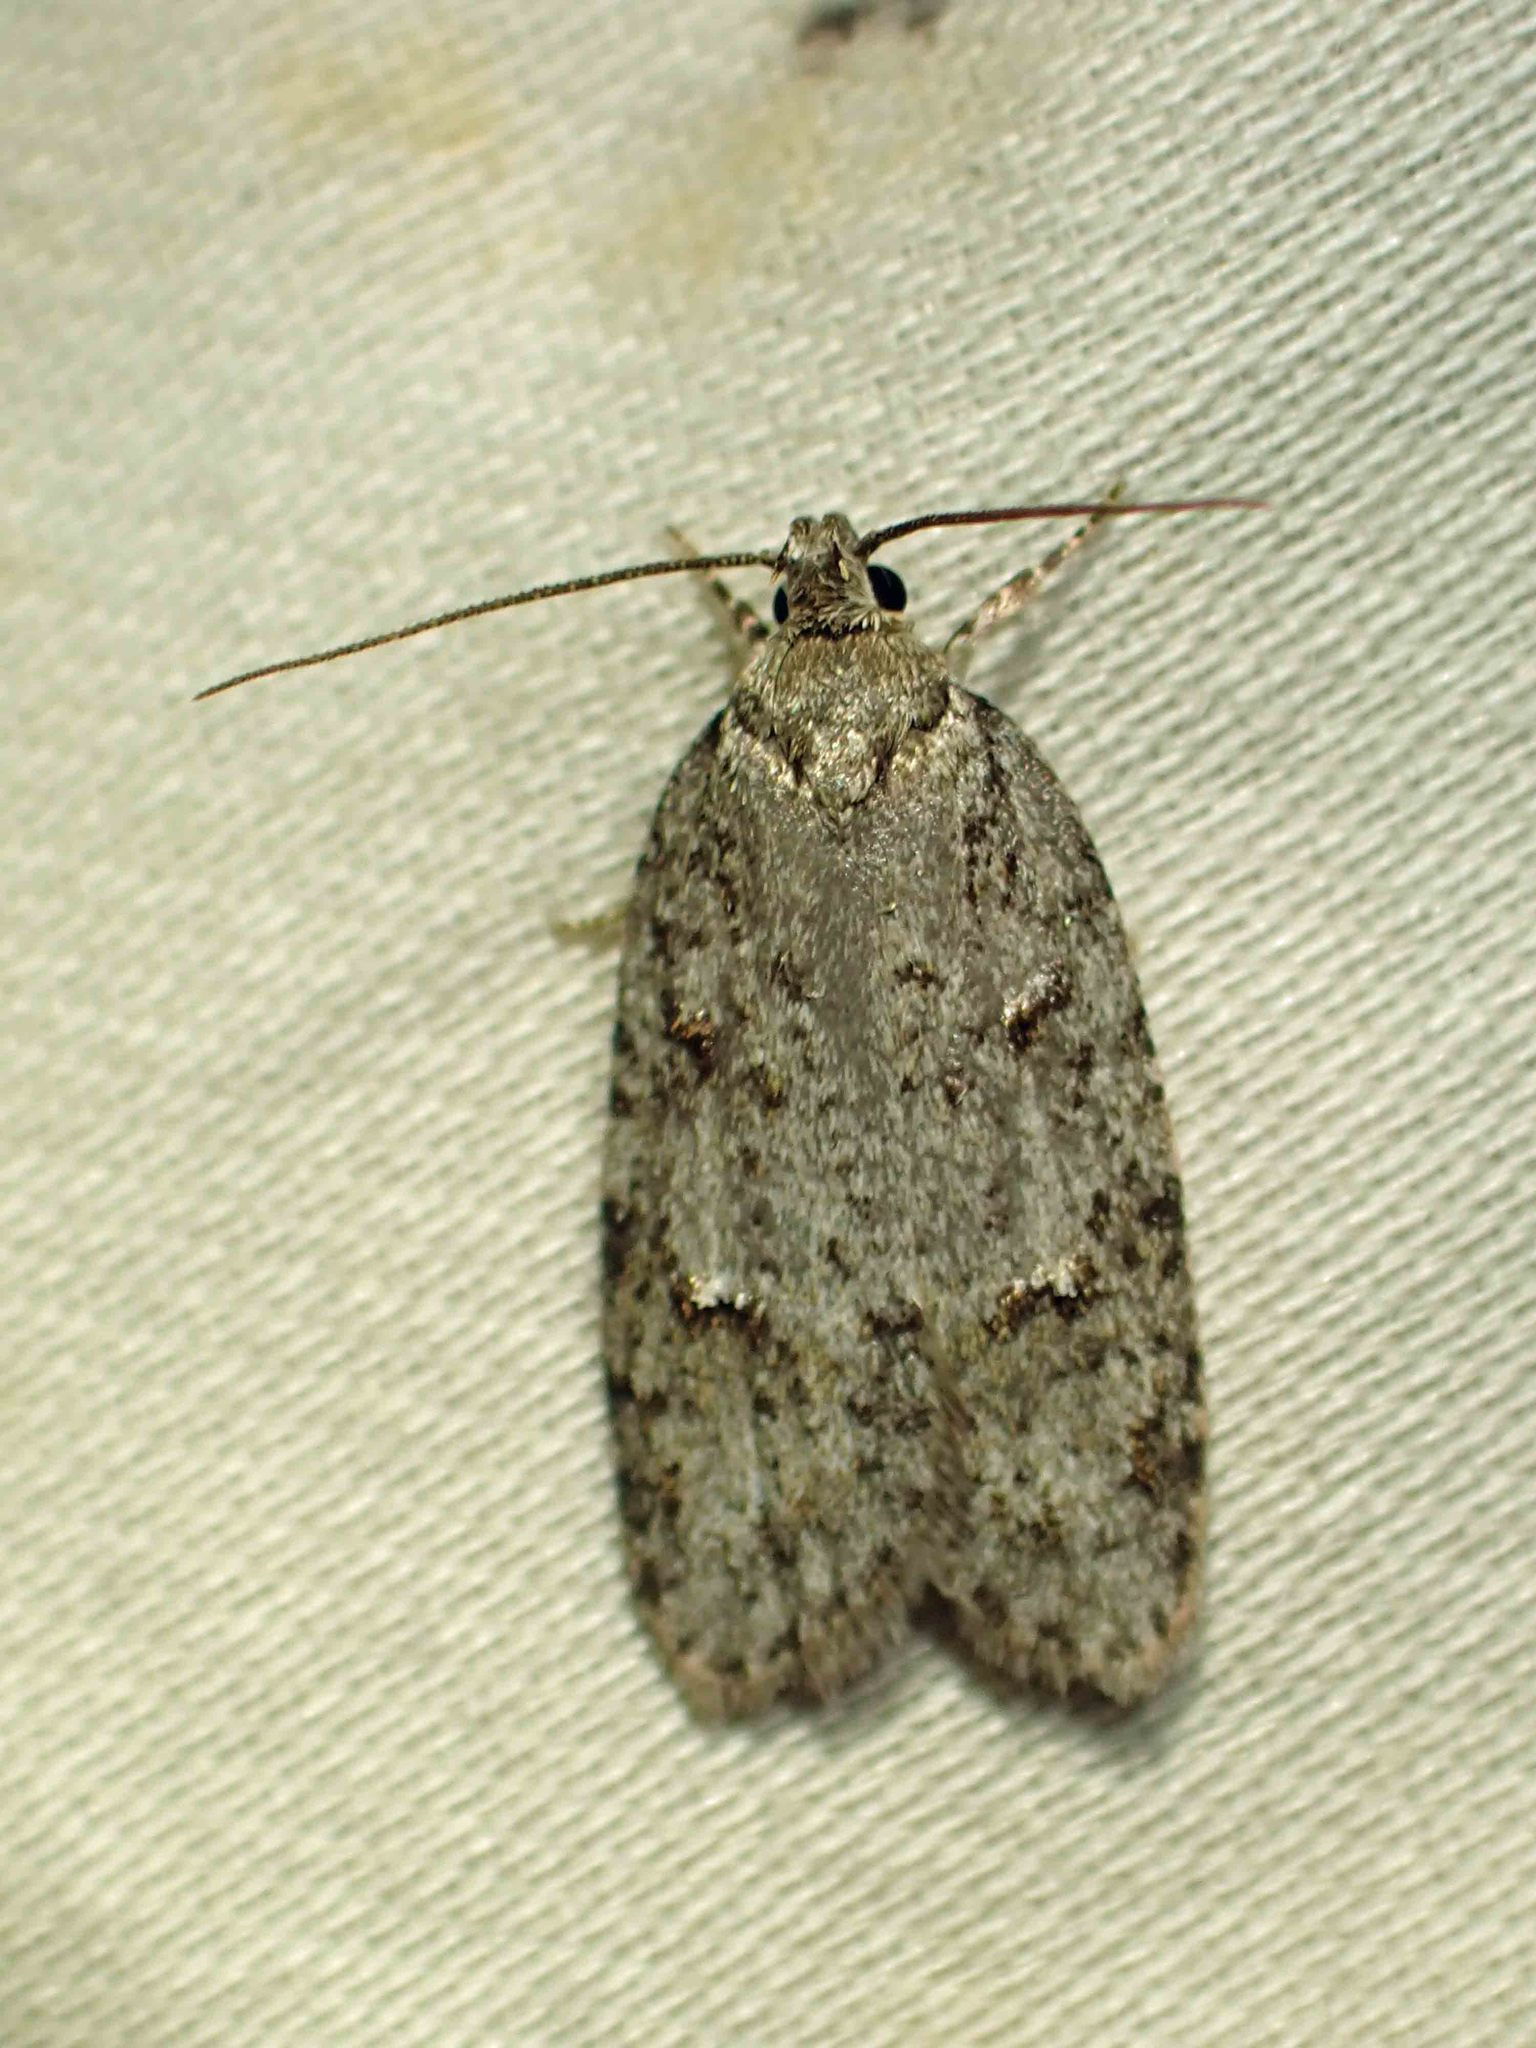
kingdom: Animalia
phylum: Arthropoda
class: Insecta
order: Lepidoptera
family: Depressariidae
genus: Bibarrambla
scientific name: Bibarrambla allenella
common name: Bog bibarrambla moth
